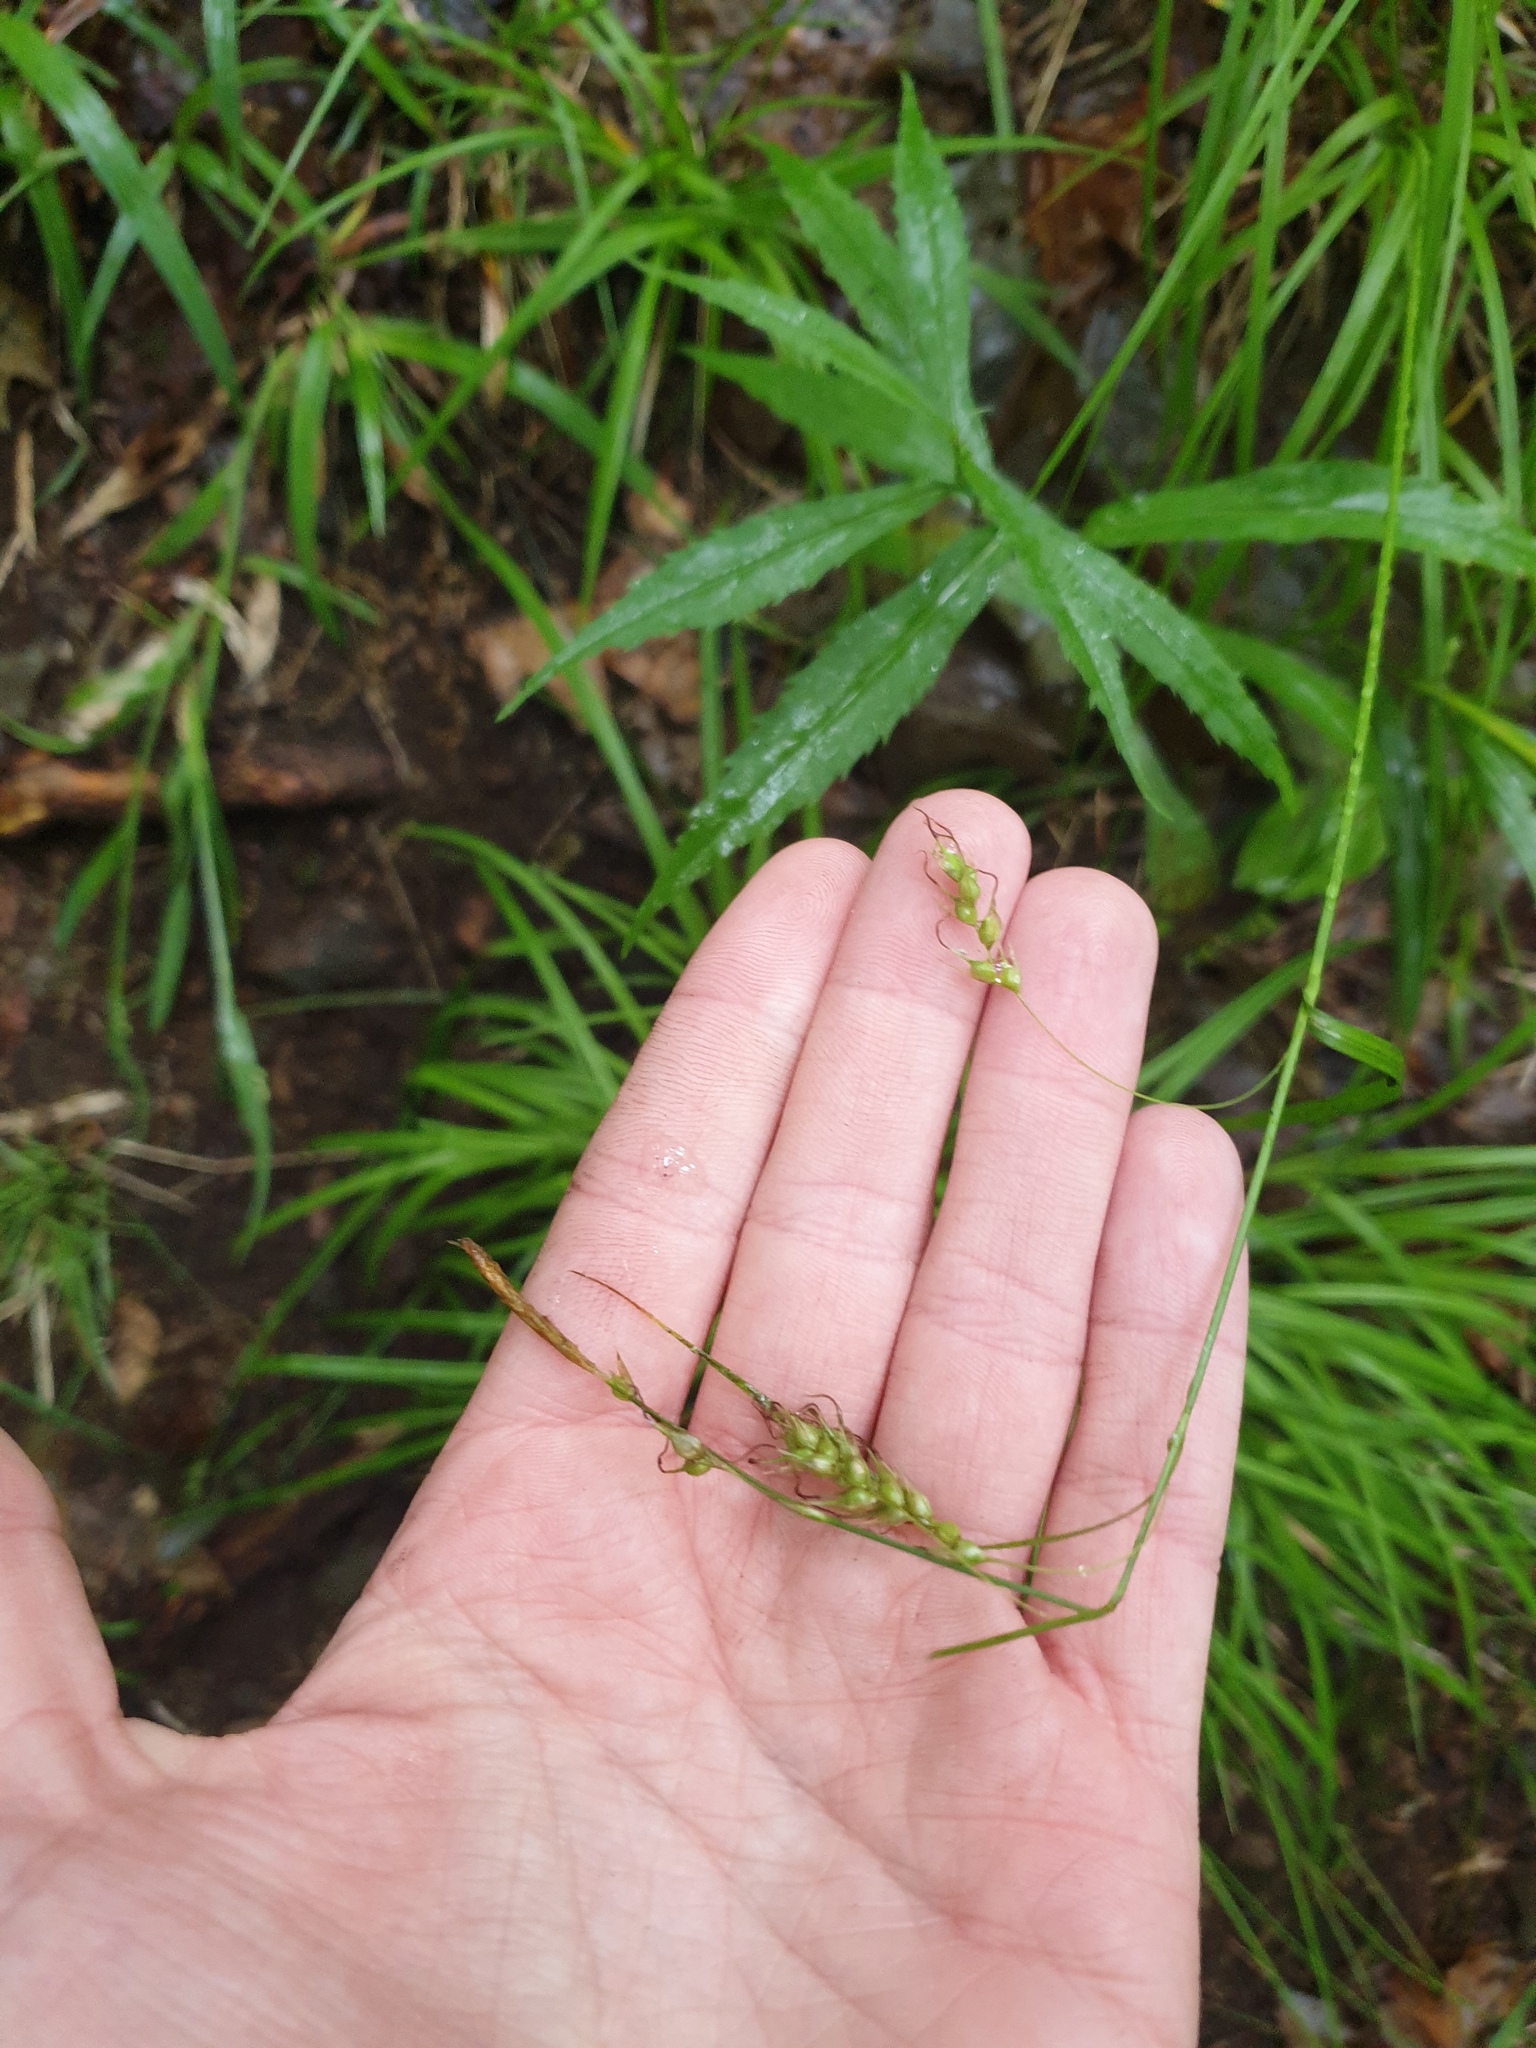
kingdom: Plantae
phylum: Tracheophyta
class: Liliopsida
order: Poales
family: Cyperaceae
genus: Carex
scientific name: Carex sprengelii
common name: Long-beaked sedge
